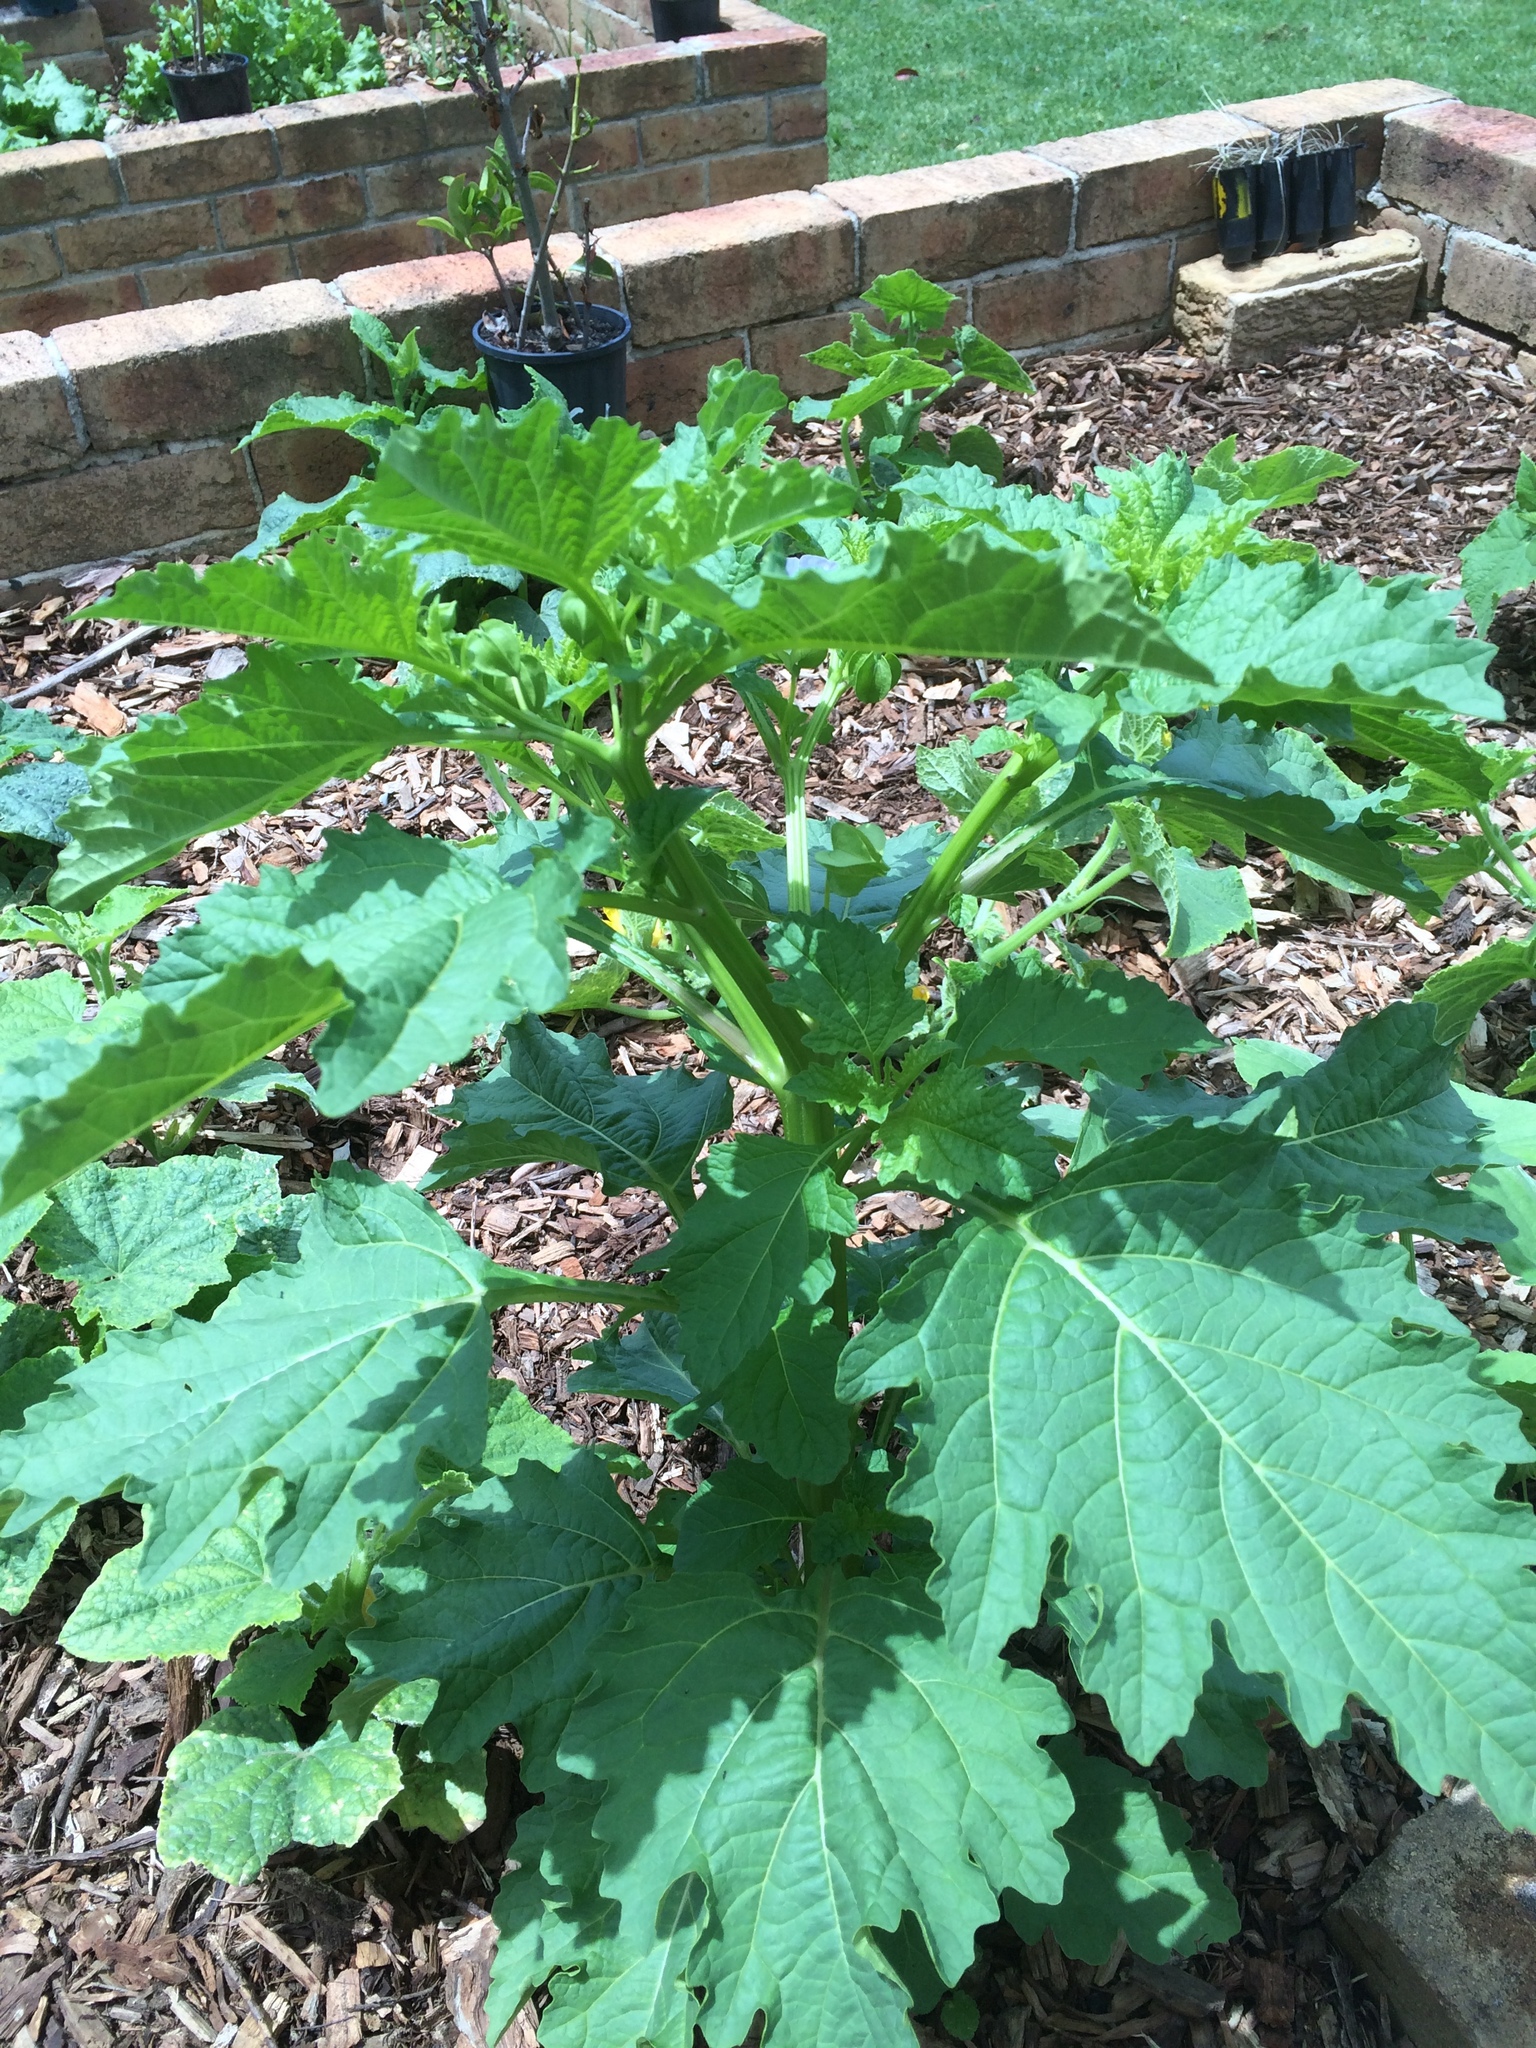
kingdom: Plantae
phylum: Tracheophyta
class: Magnoliopsida
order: Solanales
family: Solanaceae
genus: Nicandra
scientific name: Nicandra physalodes
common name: Apple-of-peru
